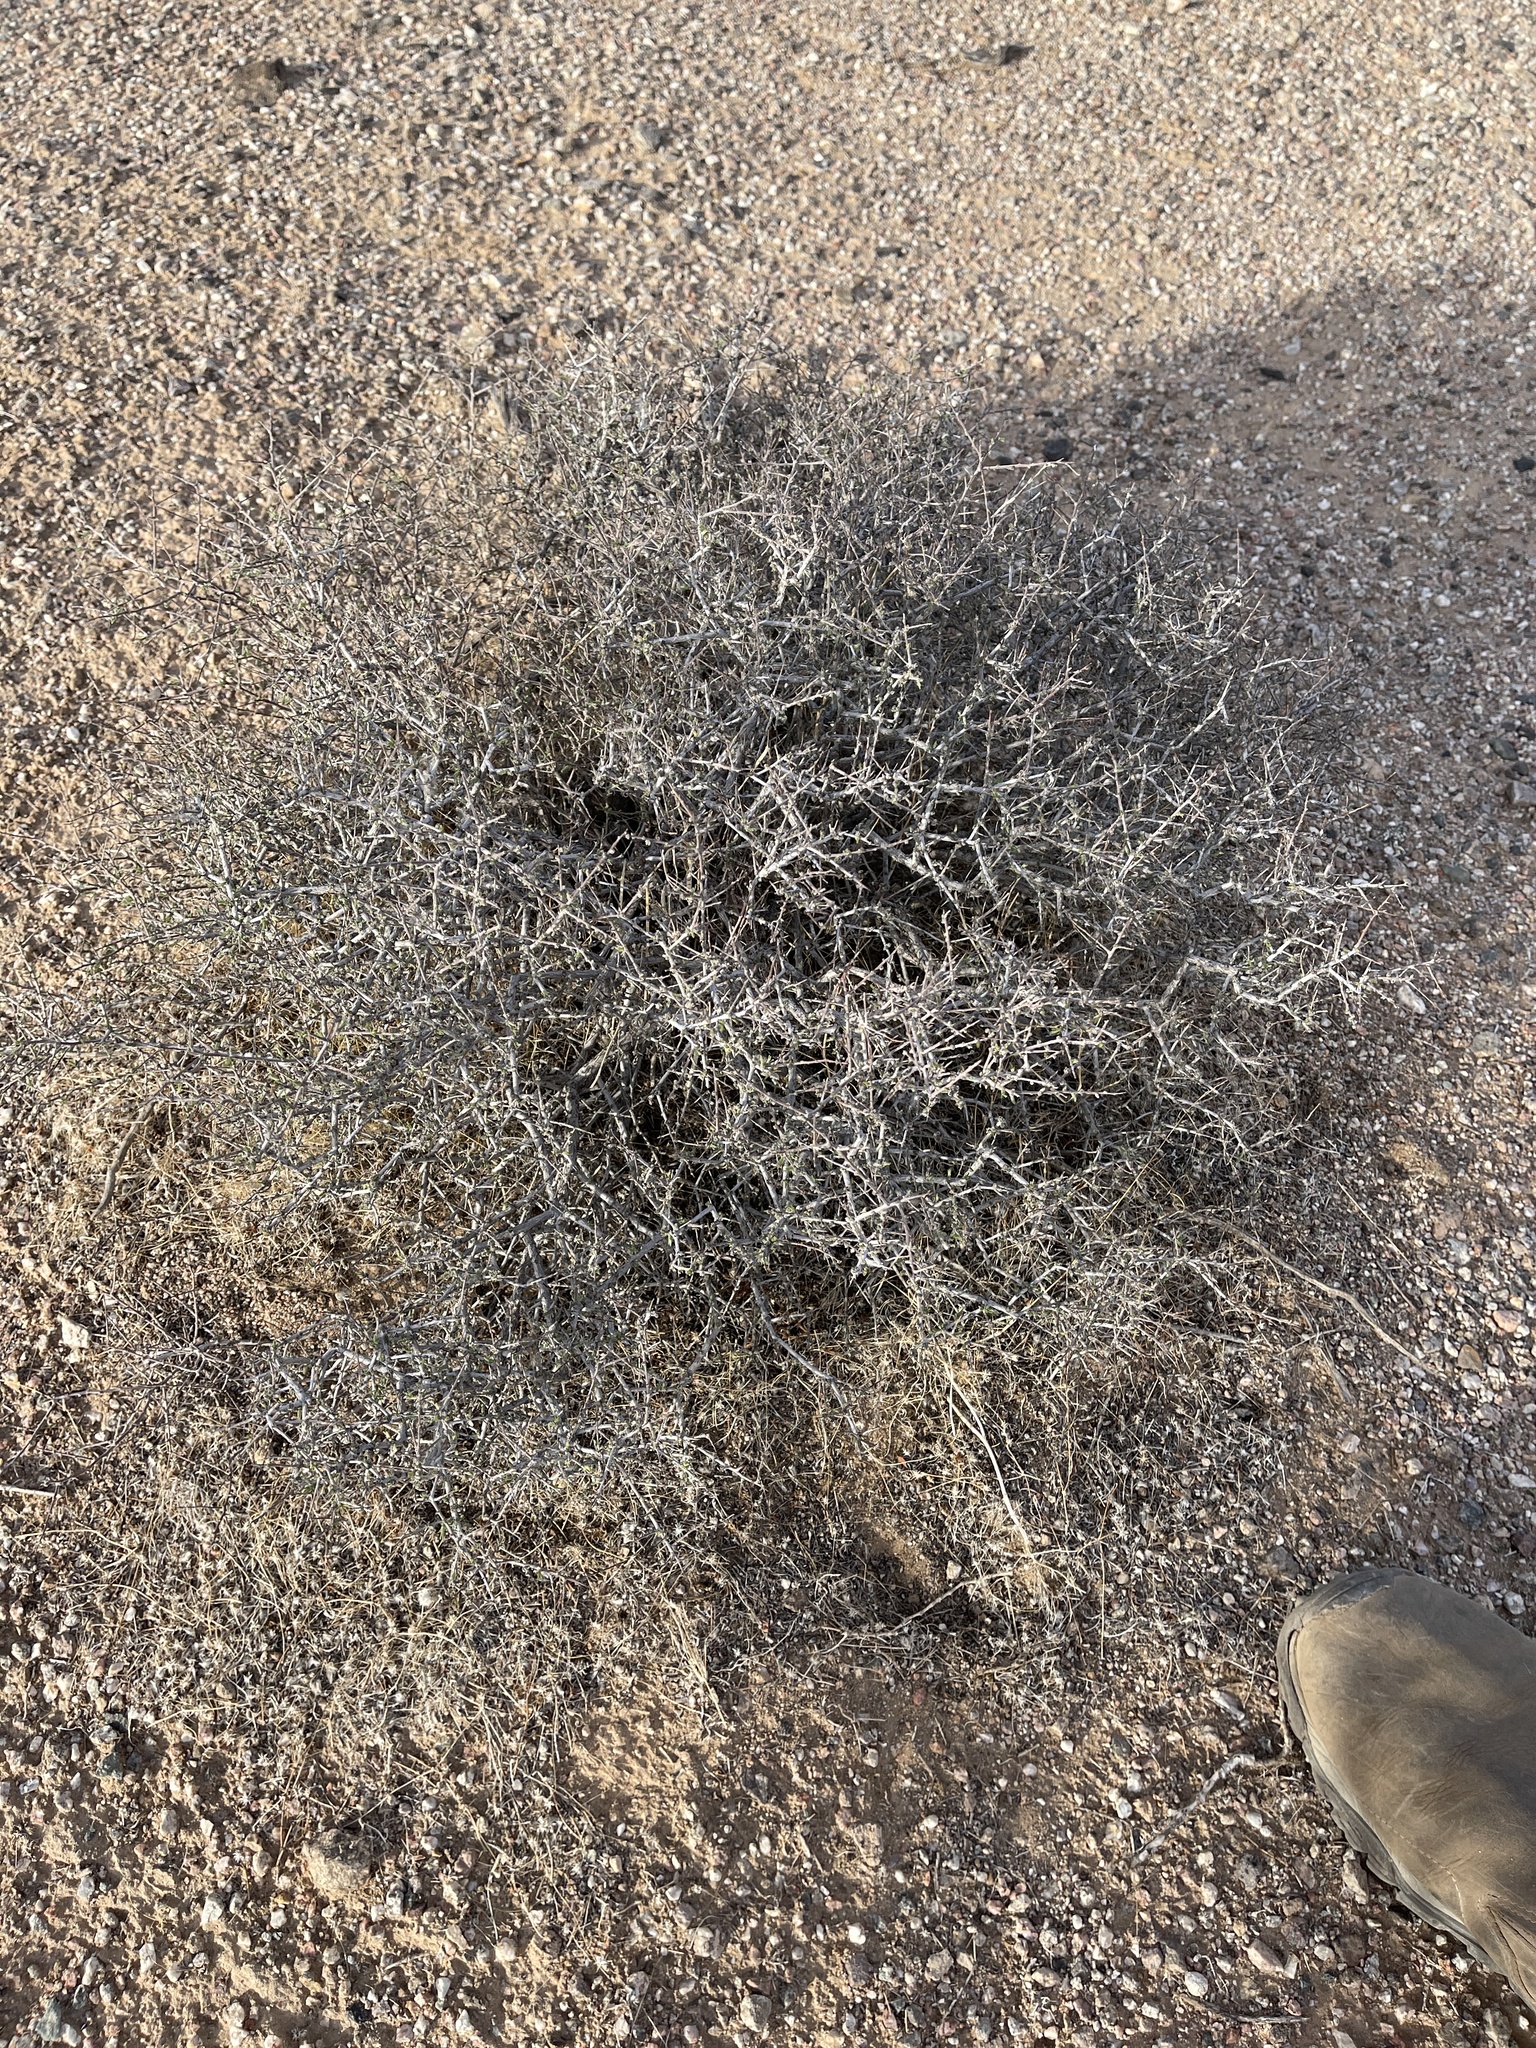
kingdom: Plantae
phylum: Tracheophyta
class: Magnoliopsida
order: Zygophyllales
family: Krameriaceae
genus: Krameria
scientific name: Krameria erecta
